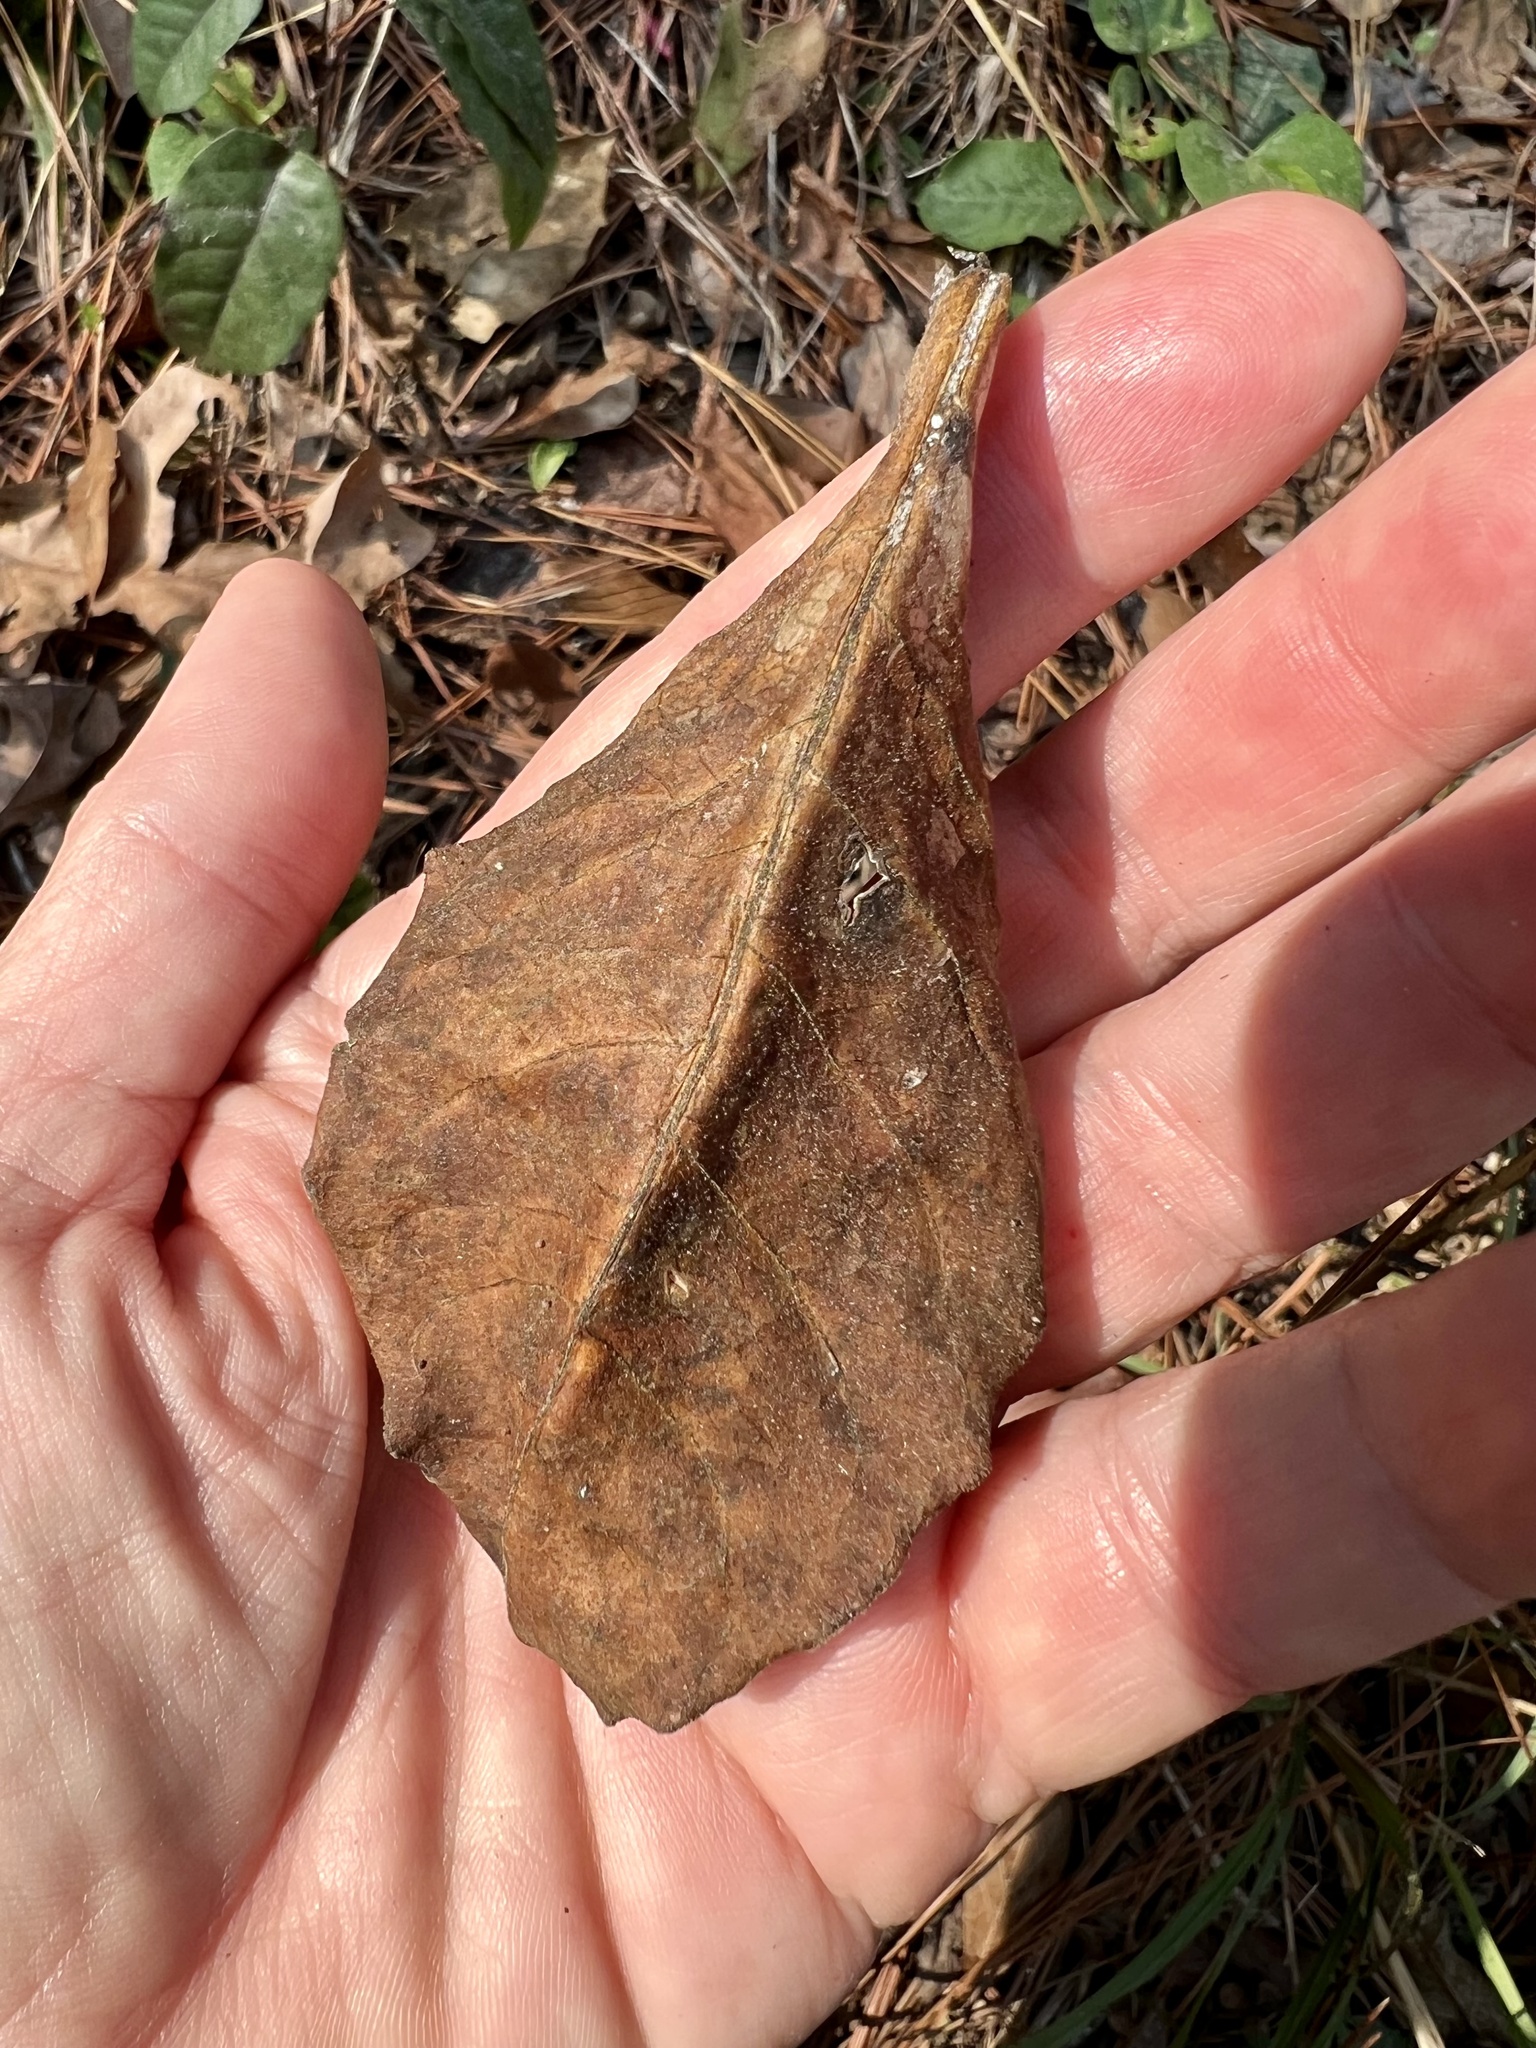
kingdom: Plantae
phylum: Tracheophyta
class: Magnoliopsida
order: Gentianales
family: Apocynaceae
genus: Asclepias
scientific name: Asclepias variegata
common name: Variegated milkweed
